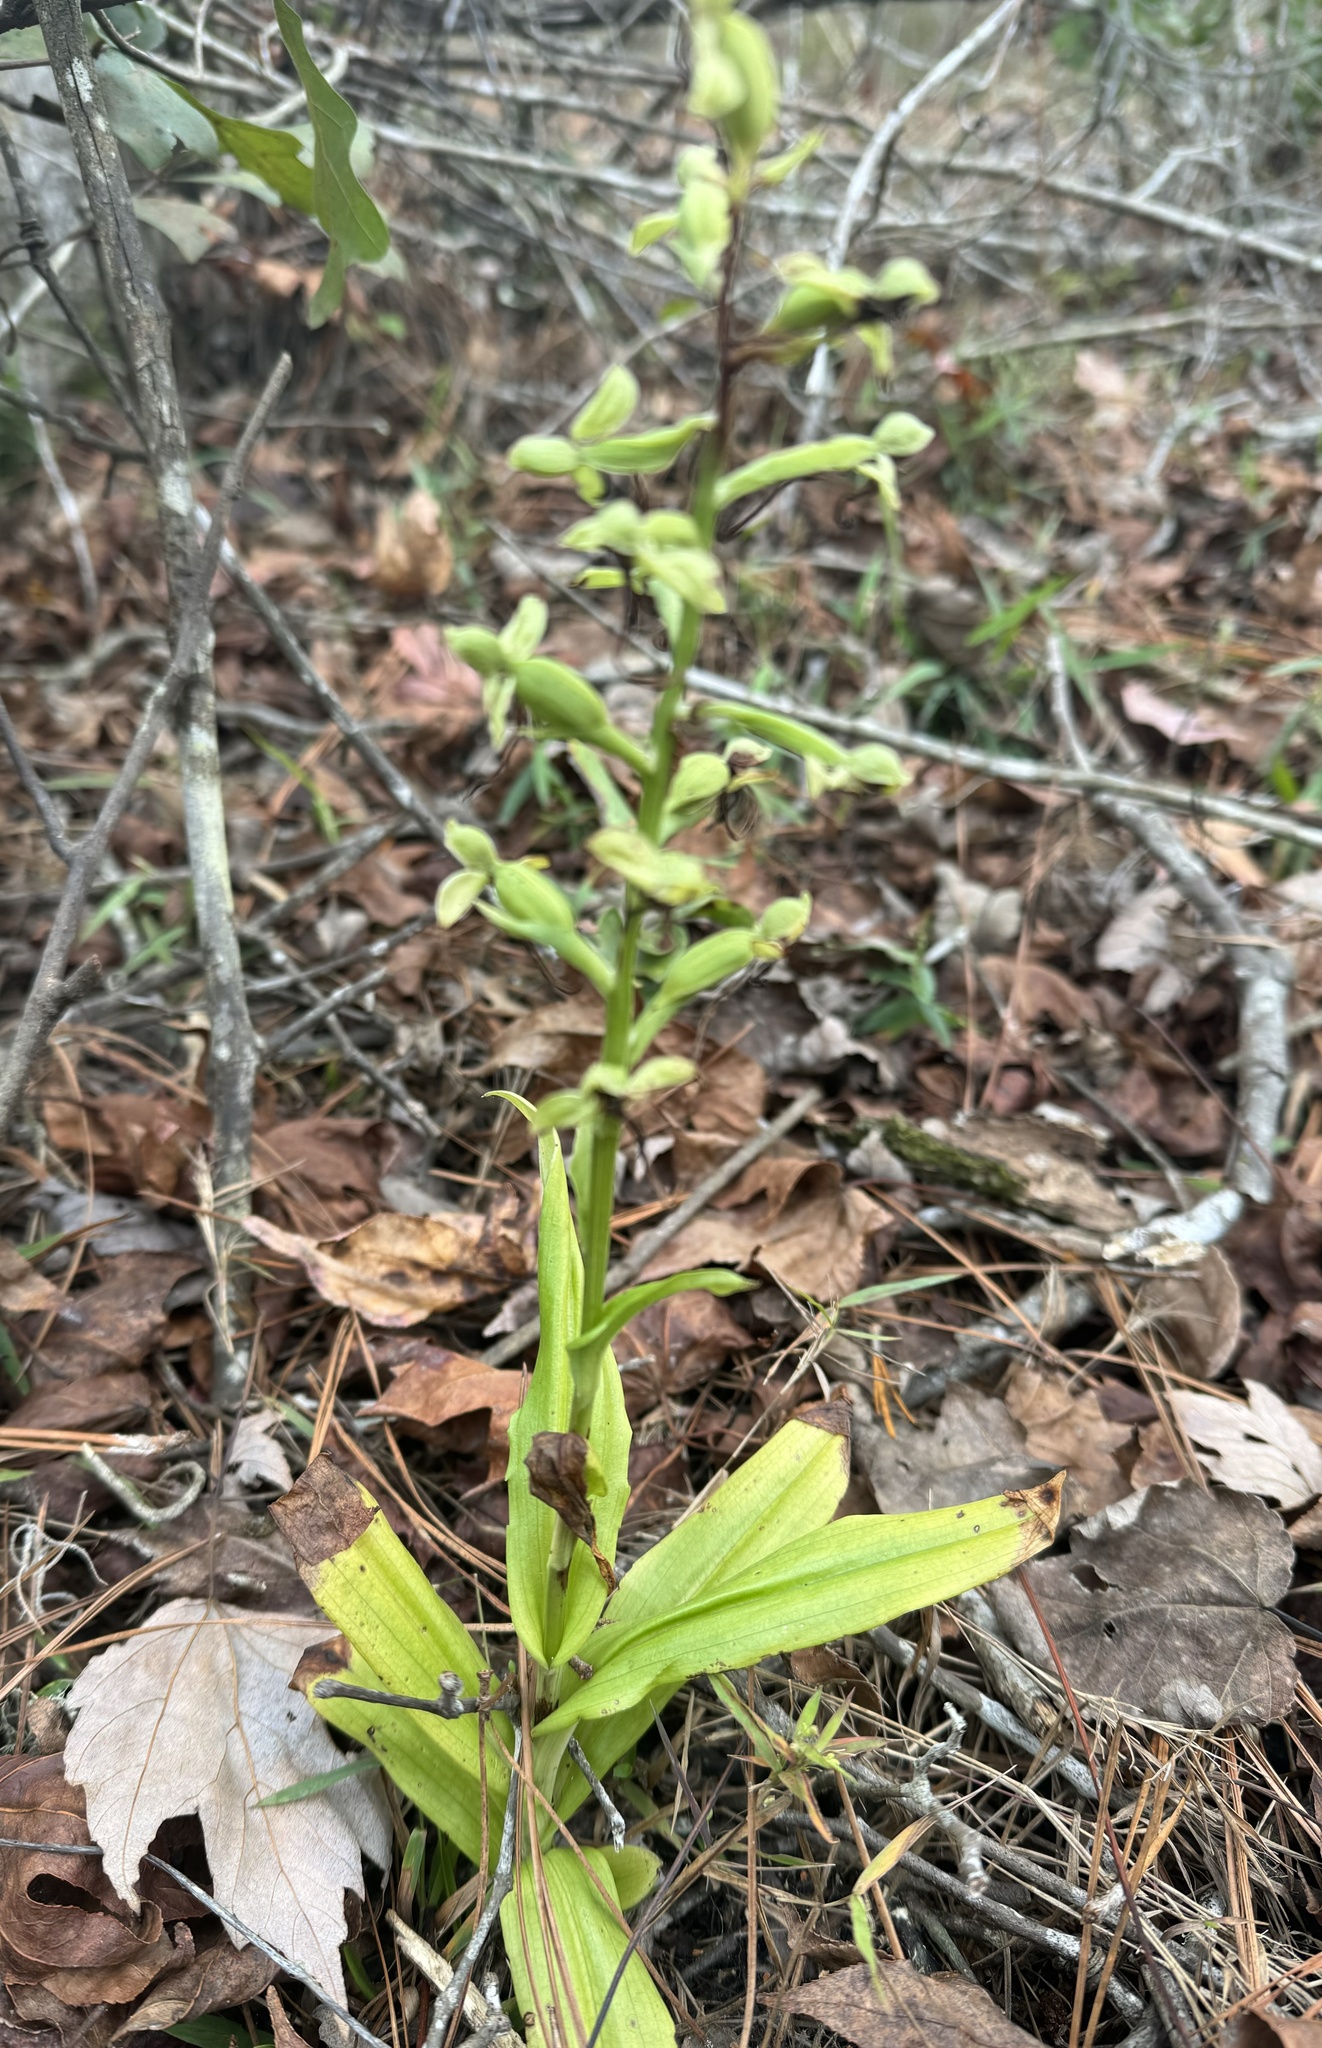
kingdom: Plantae
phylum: Tracheophyta
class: Liliopsida
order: Asparagales
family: Orchidaceae
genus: Habenaria
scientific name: Habenaria floribunda
